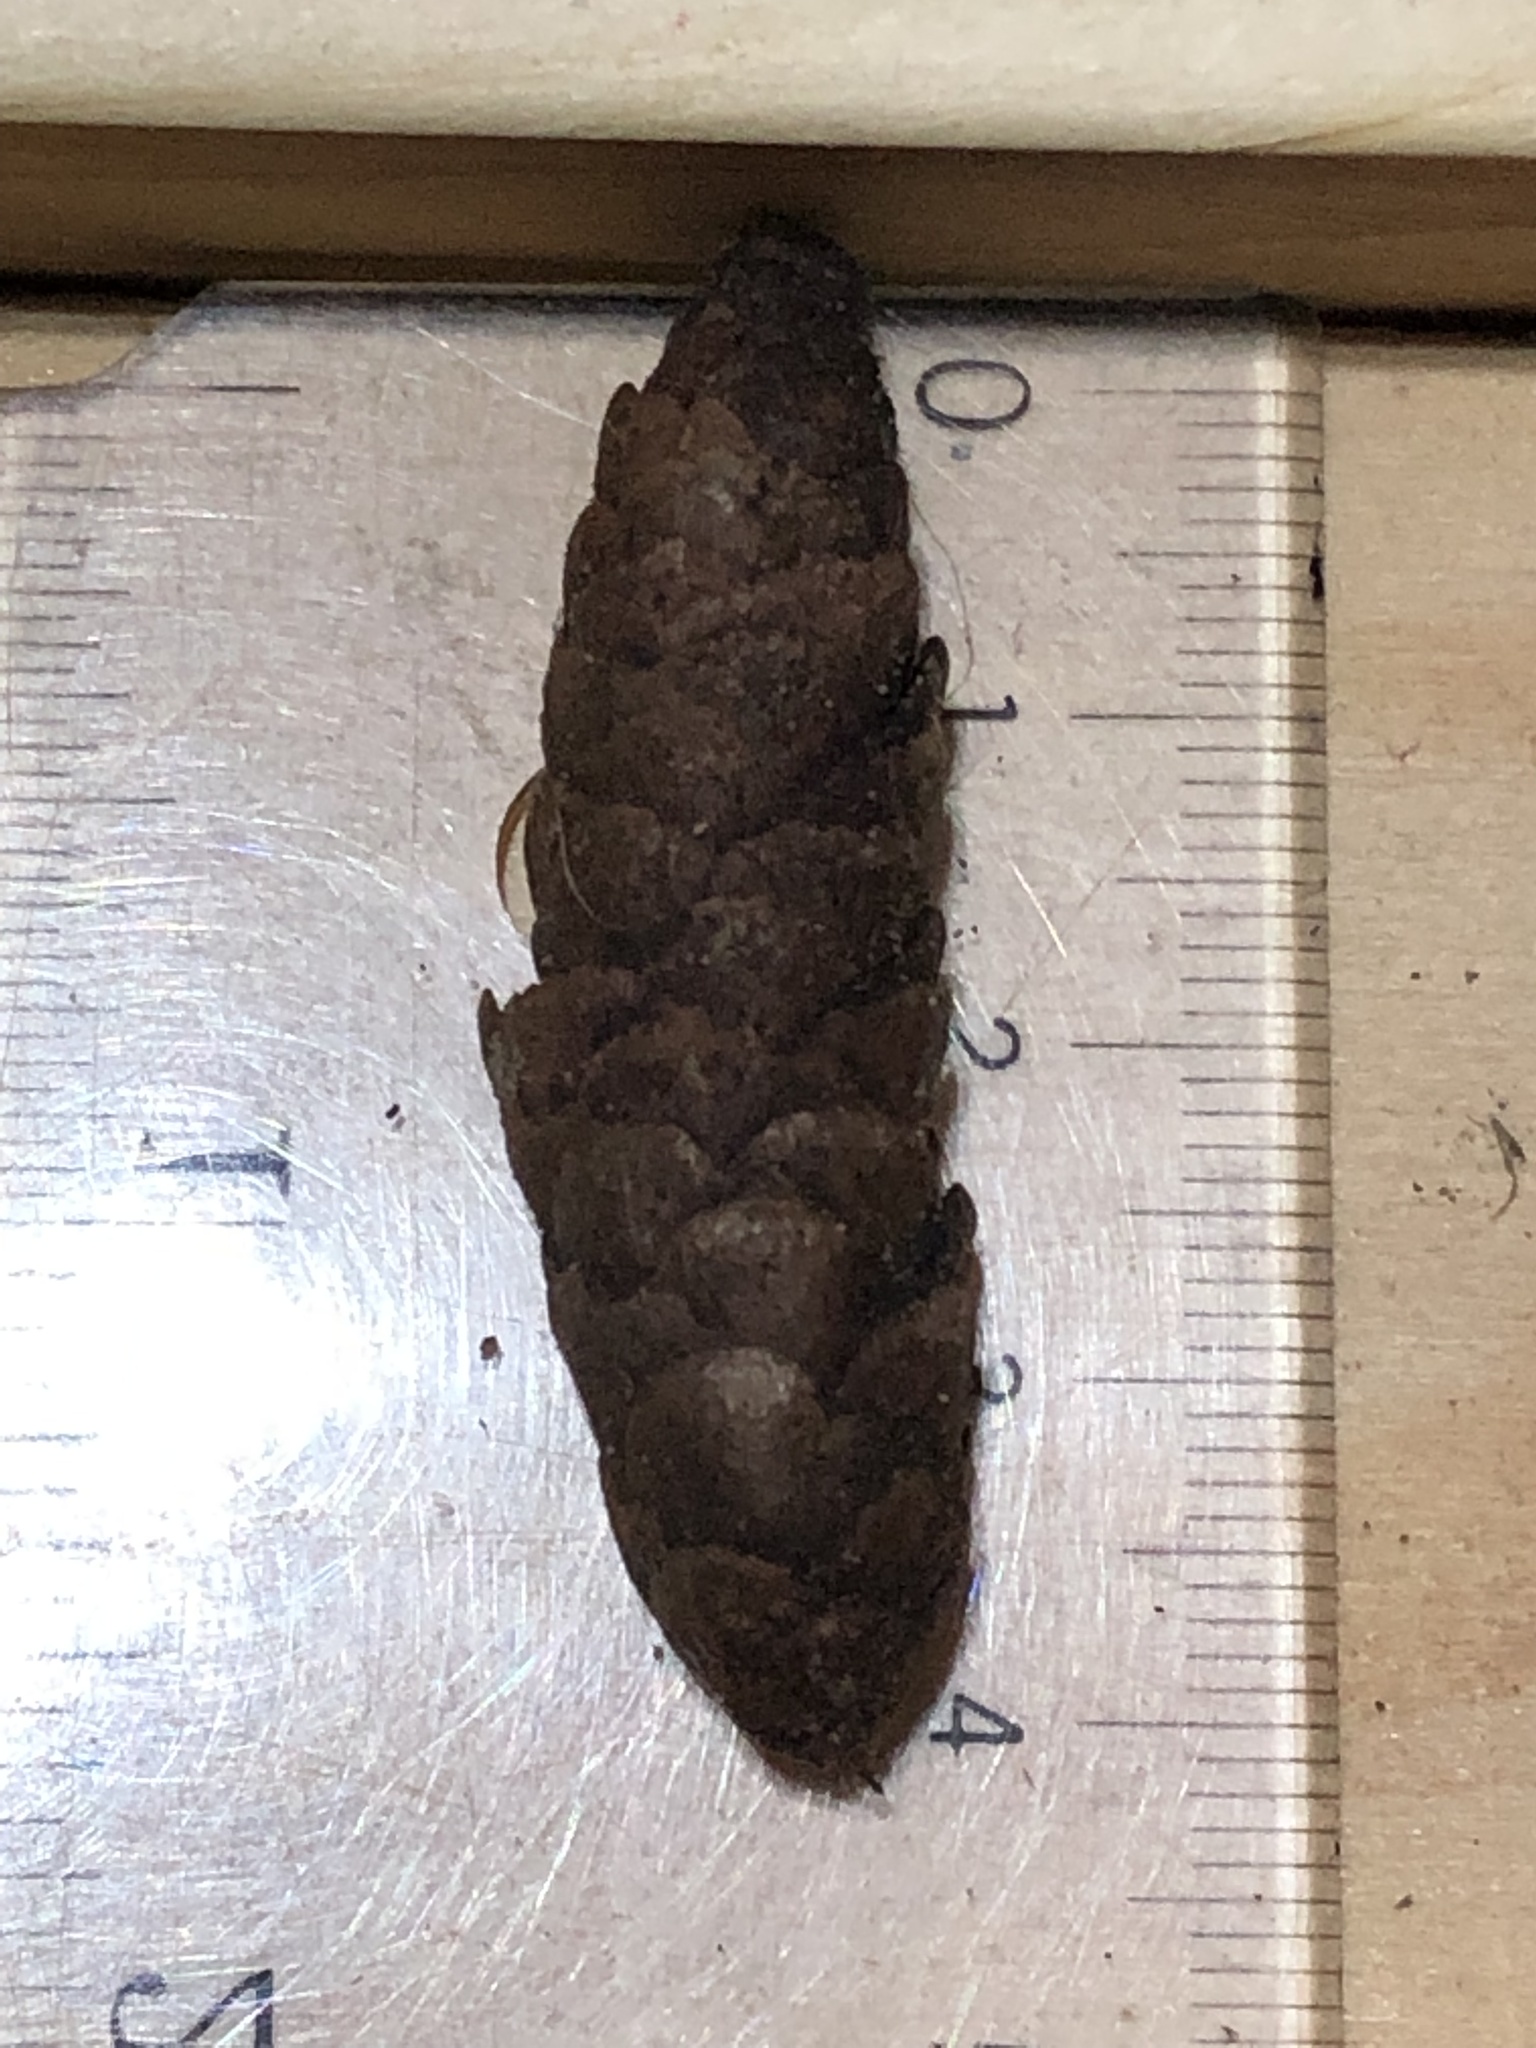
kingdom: Plantae
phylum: Tracheophyta
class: Pinopsida
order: Pinales
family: Pinaceae
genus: Picea
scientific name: Picea glauca
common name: White spruce
